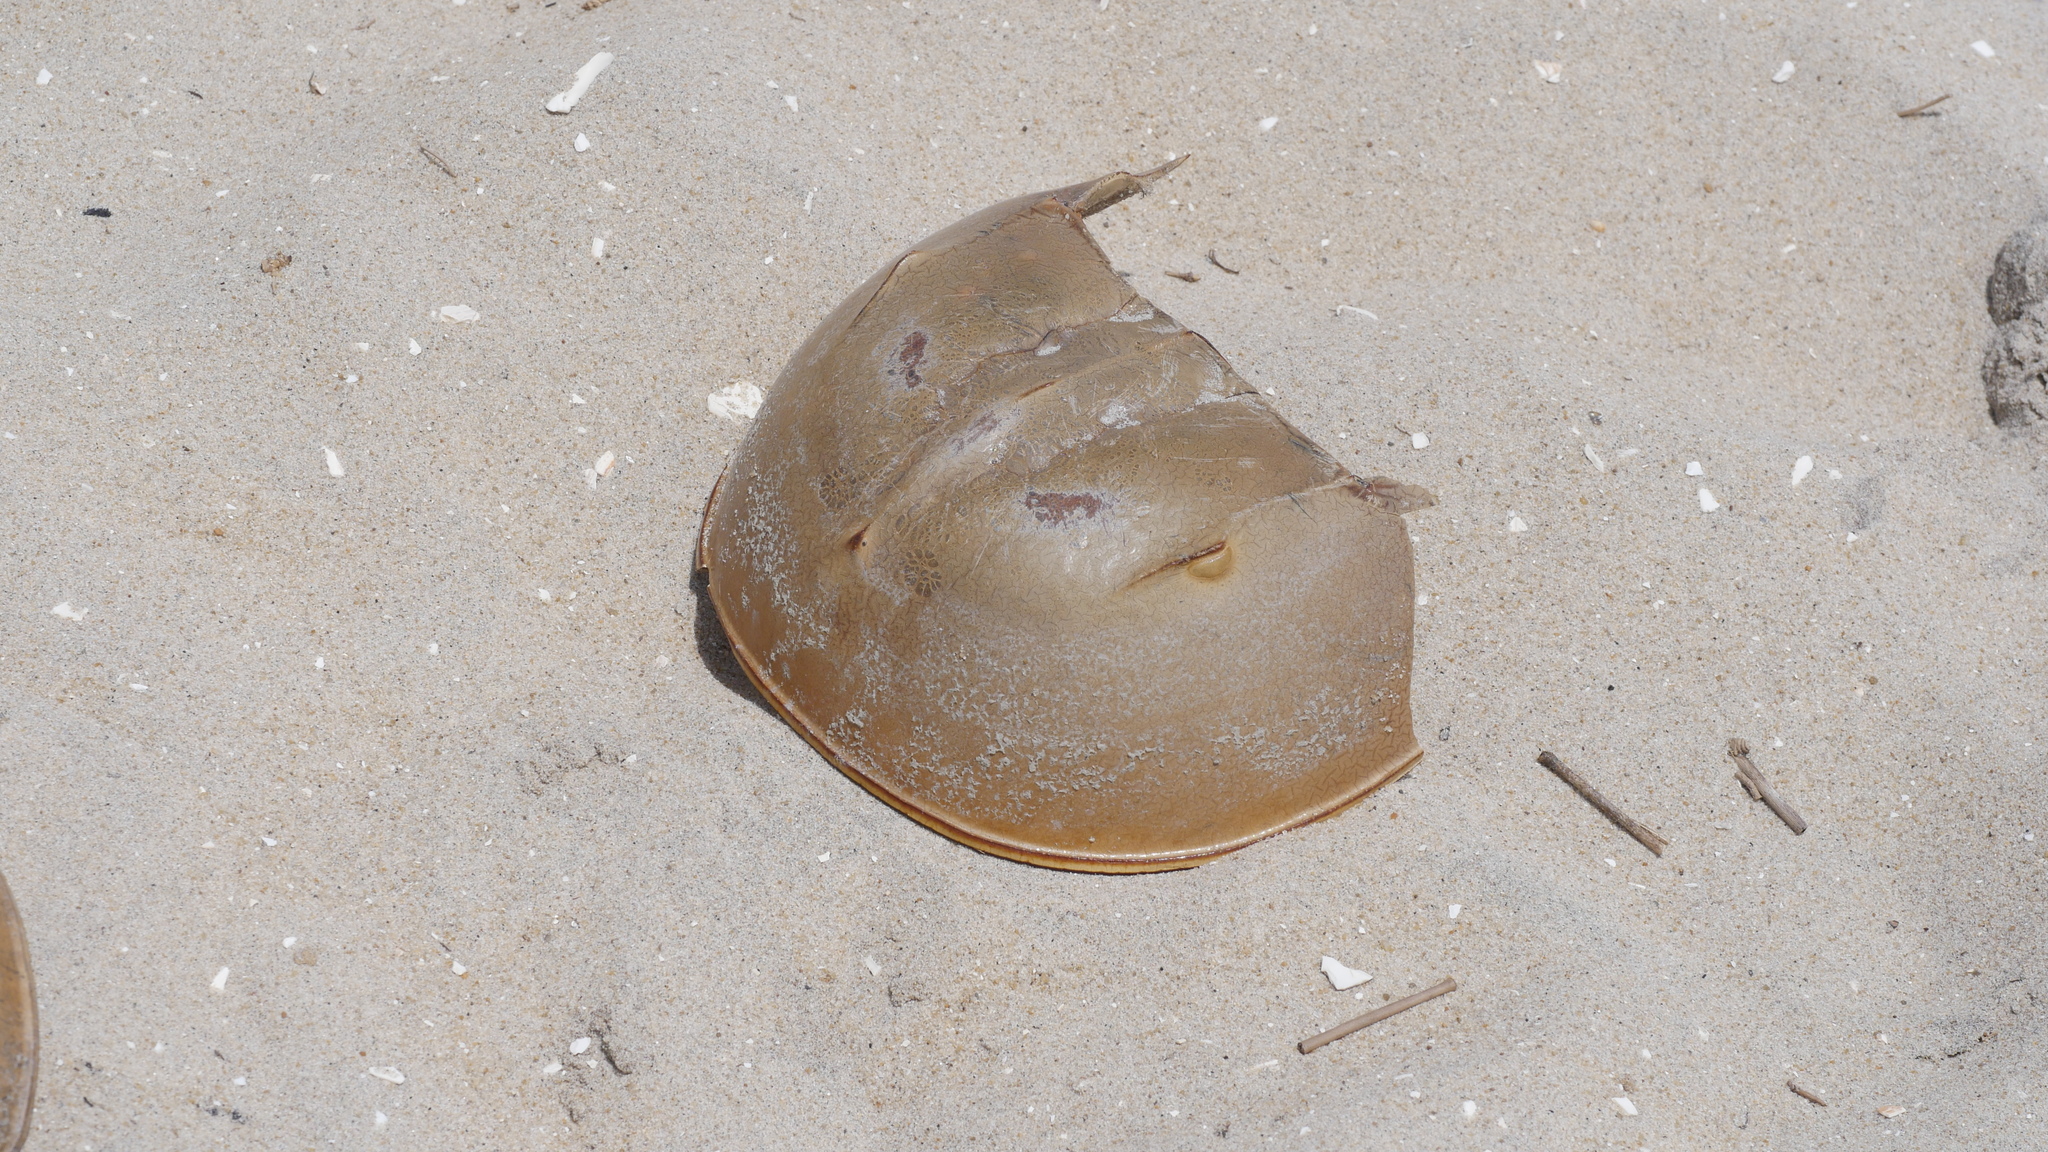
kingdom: Animalia
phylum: Arthropoda
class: Merostomata
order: Xiphosurida
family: Limulidae
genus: Limulus
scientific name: Limulus polyphemus
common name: Horseshoe crab
